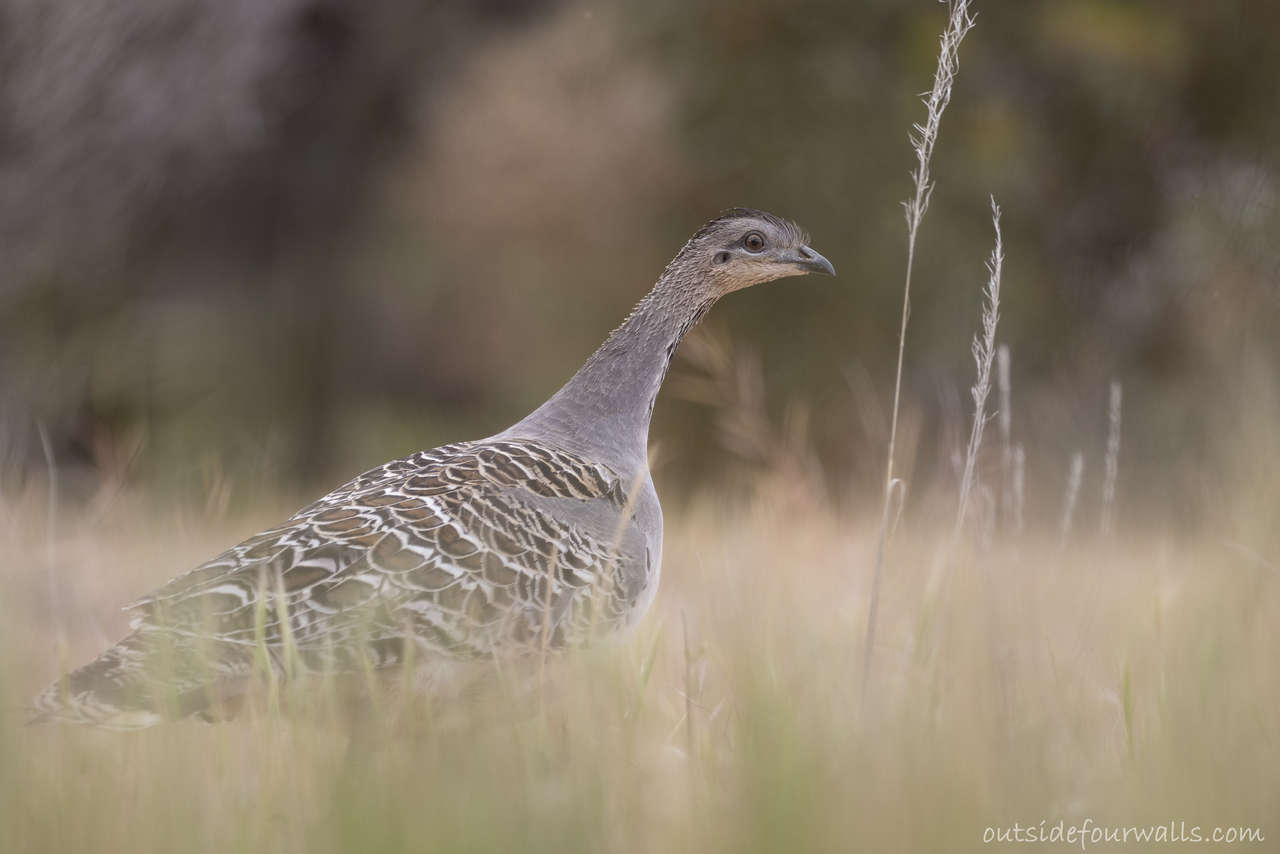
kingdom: Animalia
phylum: Chordata
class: Aves
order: Galliformes
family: Megapodiidae
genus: Leipoa
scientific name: Leipoa ocellata
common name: Malleefowl
